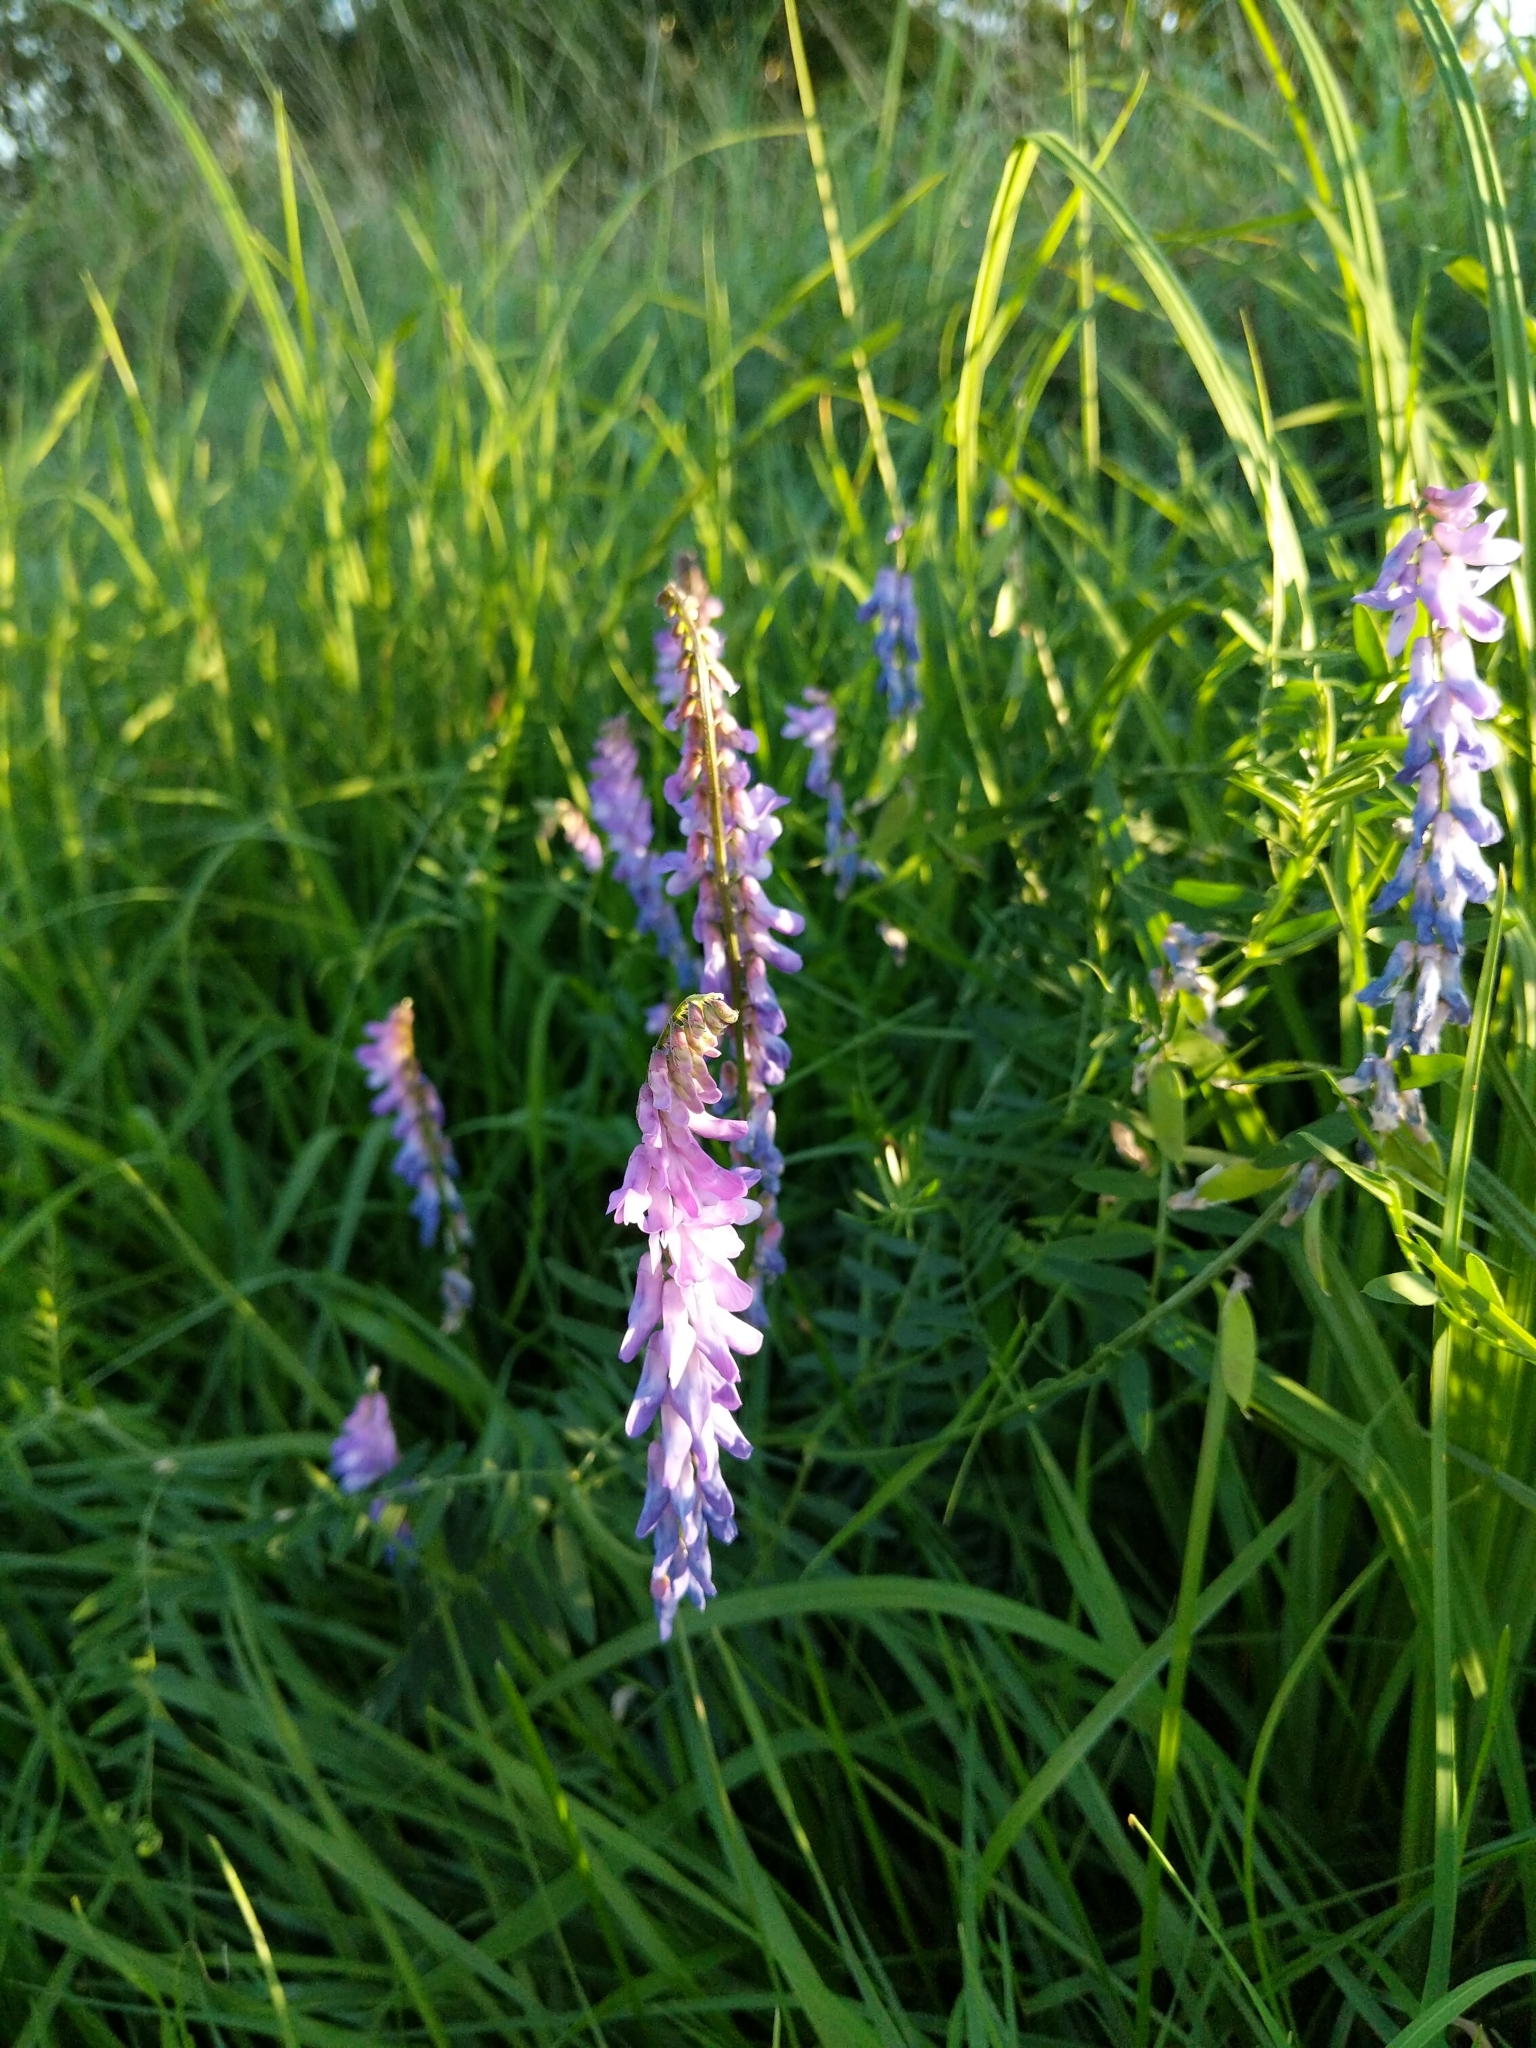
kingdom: Plantae
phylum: Tracheophyta
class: Magnoliopsida
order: Fabales
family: Fabaceae
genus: Vicia
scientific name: Vicia cracca
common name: Bird vetch
